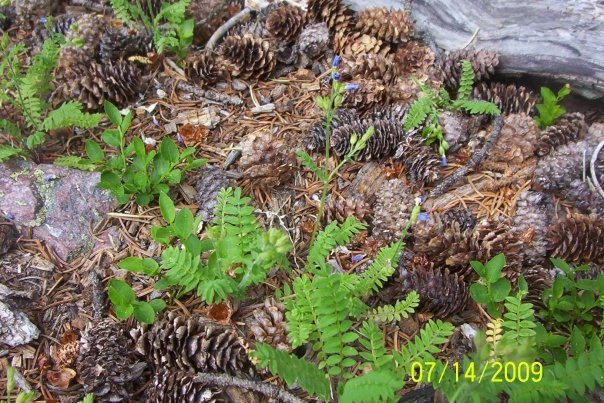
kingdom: Plantae
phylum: Tracheophyta
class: Magnoliopsida
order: Ericales
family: Polemoniaceae
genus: Polemonium
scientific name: Polemonium pulcherrimum
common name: Short jacob's-ladder
